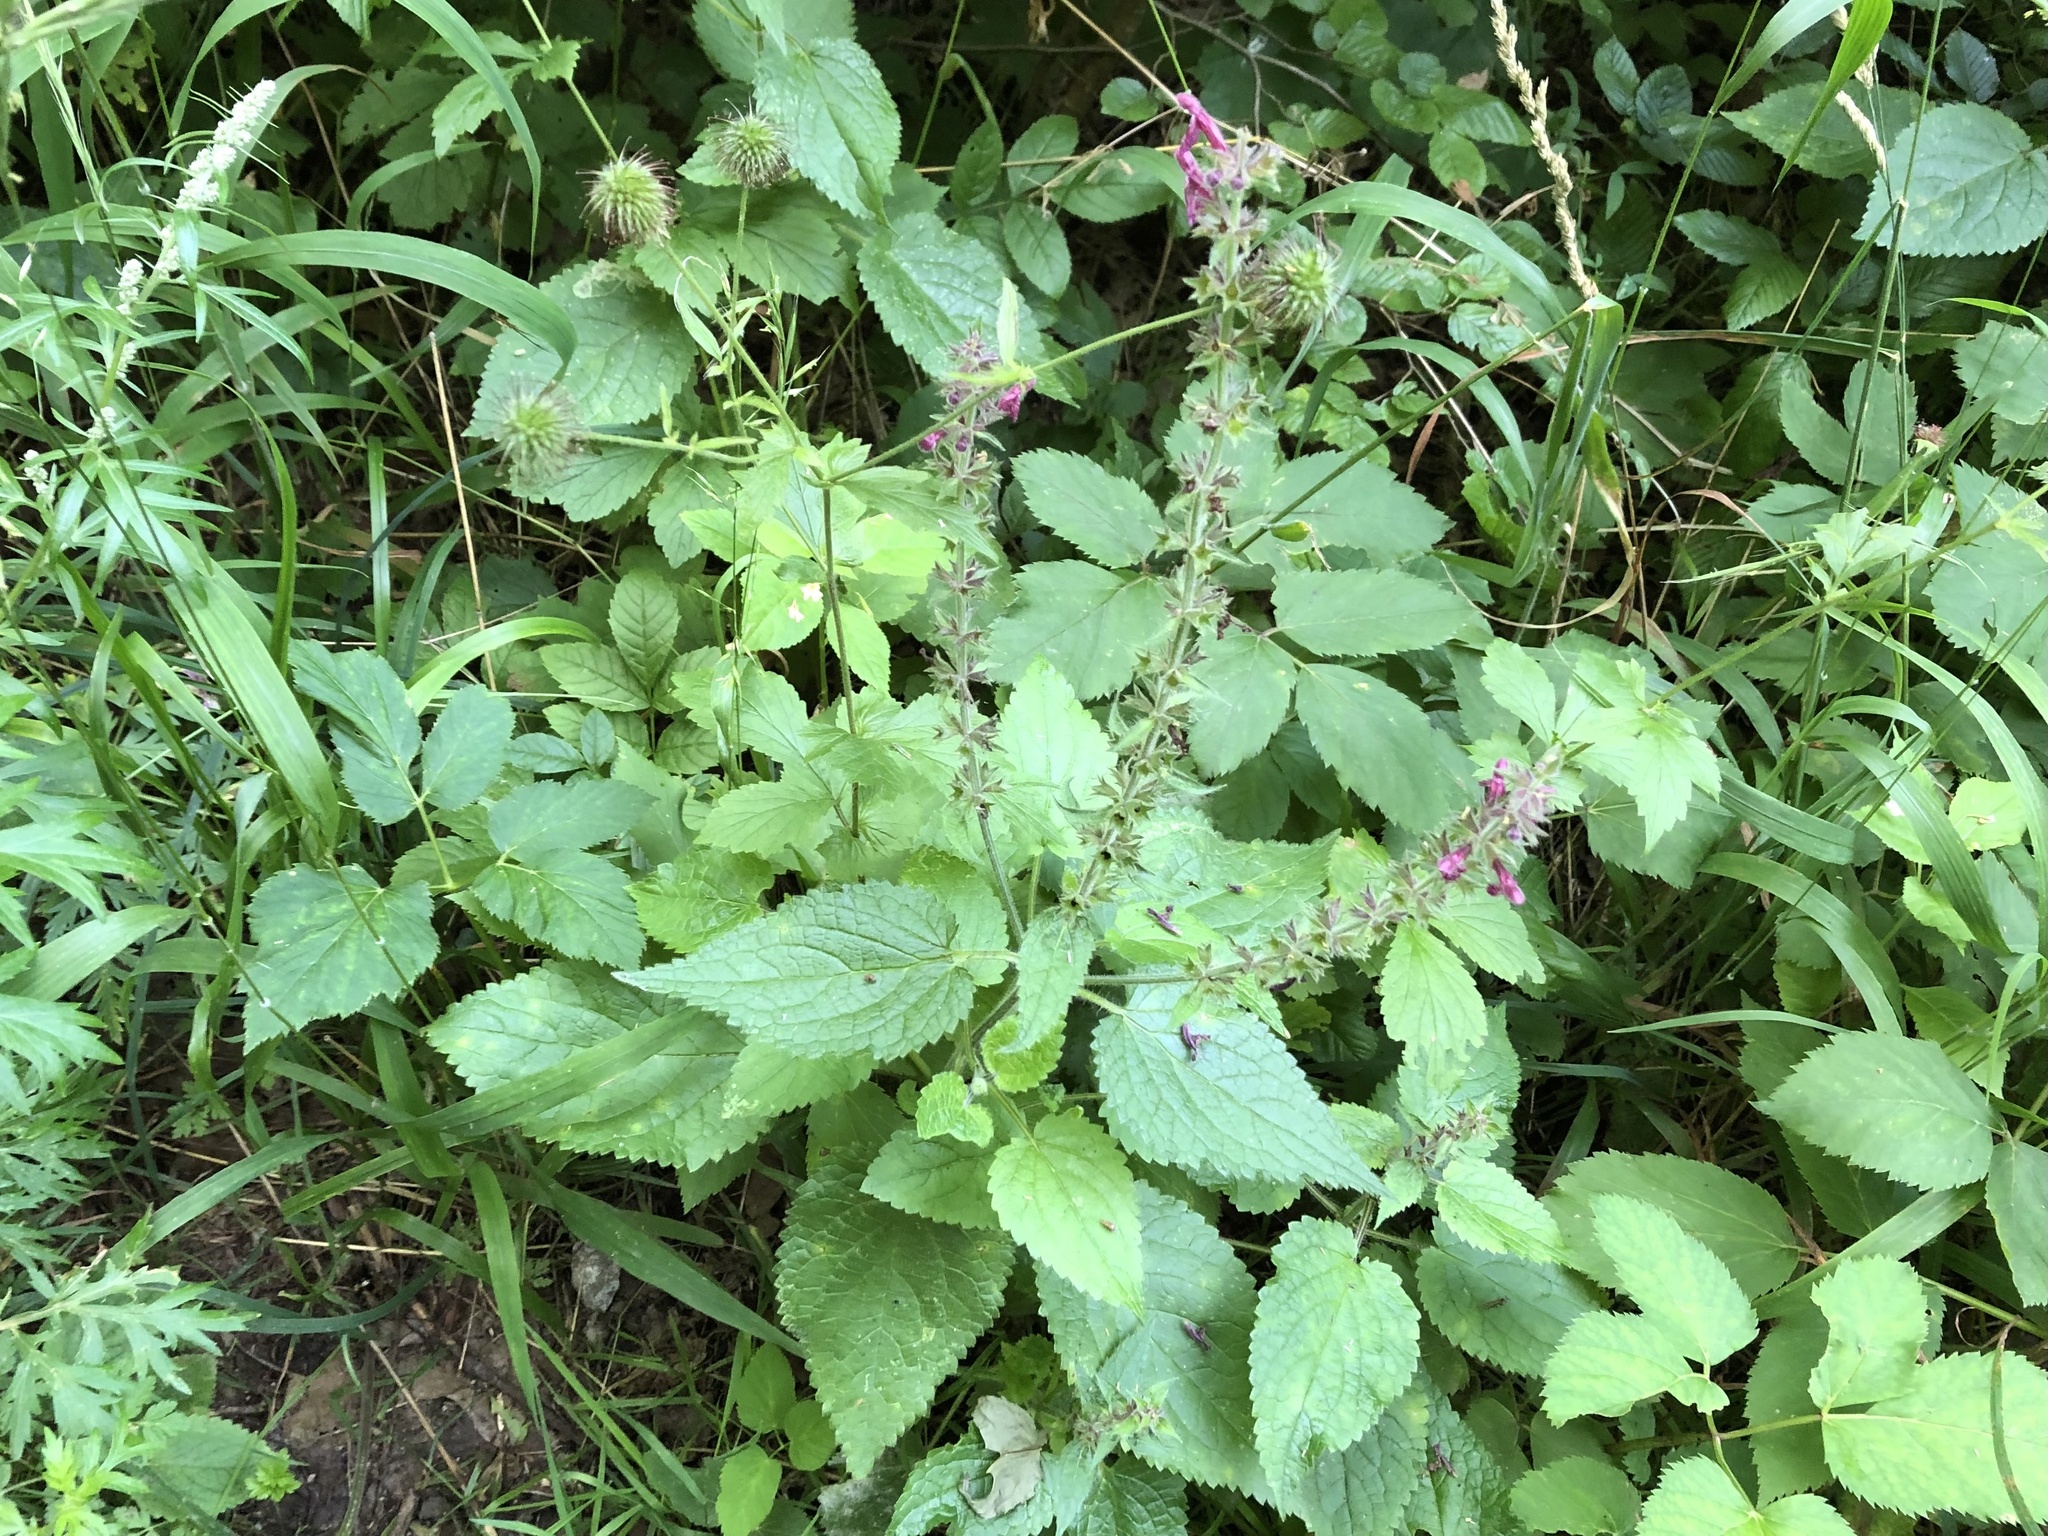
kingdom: Plantae
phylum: Tracheophyta
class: Magnoliopsida
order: Lamiales
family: Lamiaceae
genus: Stachys
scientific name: Stachys sylvatica
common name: Hedge woundwort
